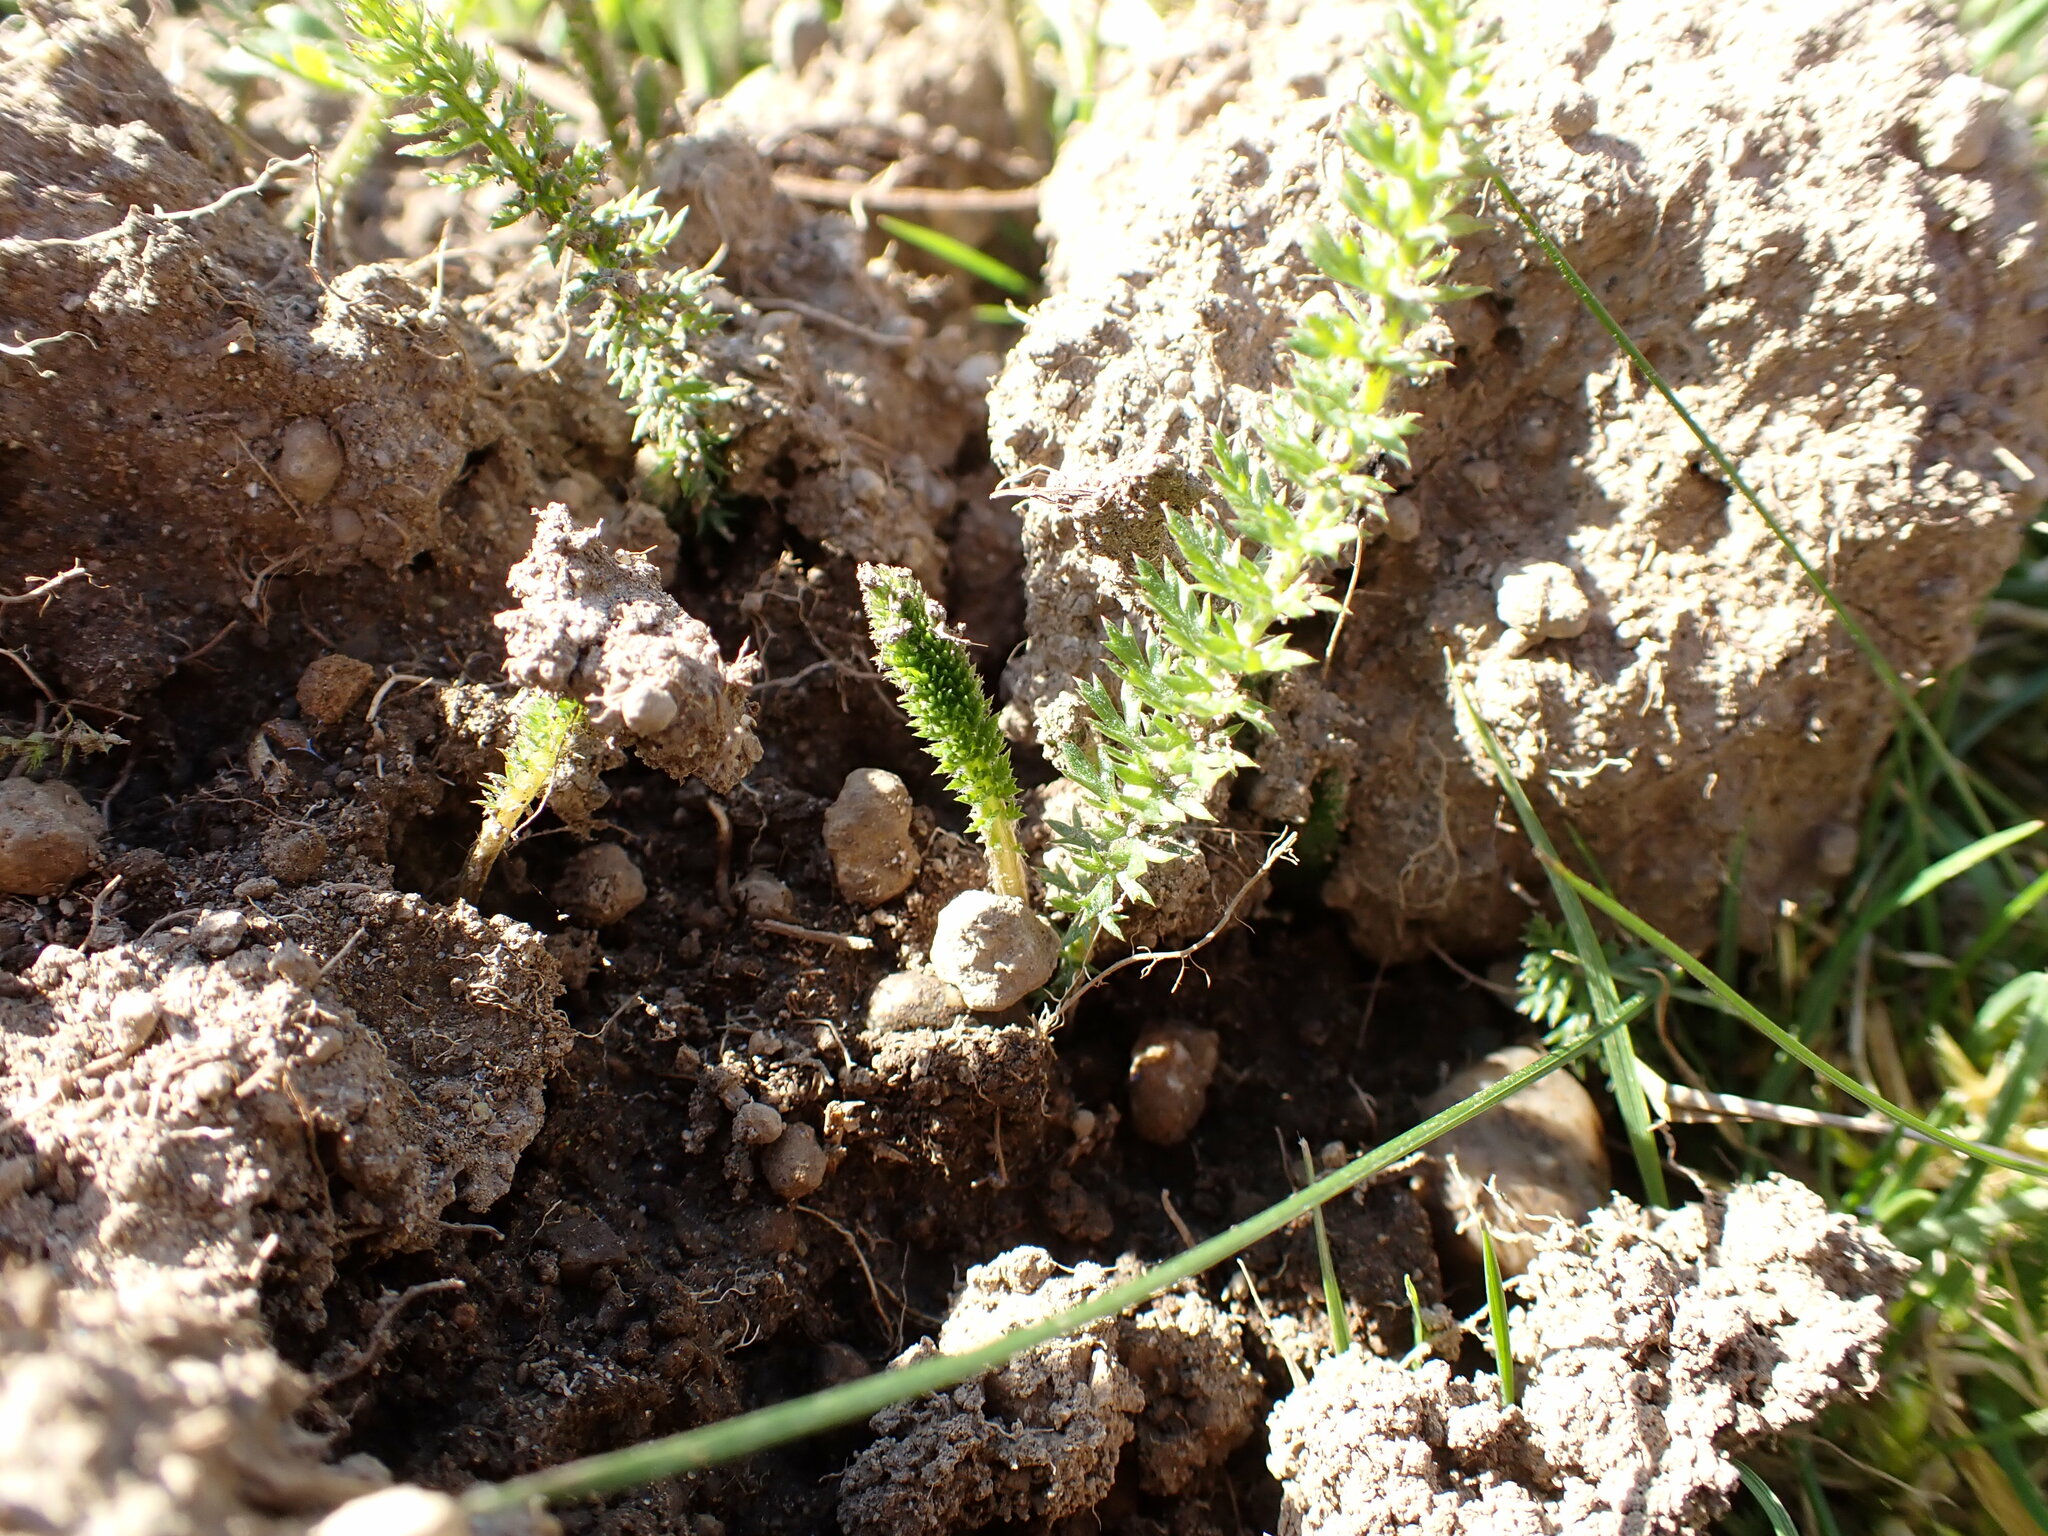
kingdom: Plantae
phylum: Tracheophyta
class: Magnoliopsida
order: Asterales
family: Asteraceae
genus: Achillea
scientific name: Achillea millefolium
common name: Yarrow
